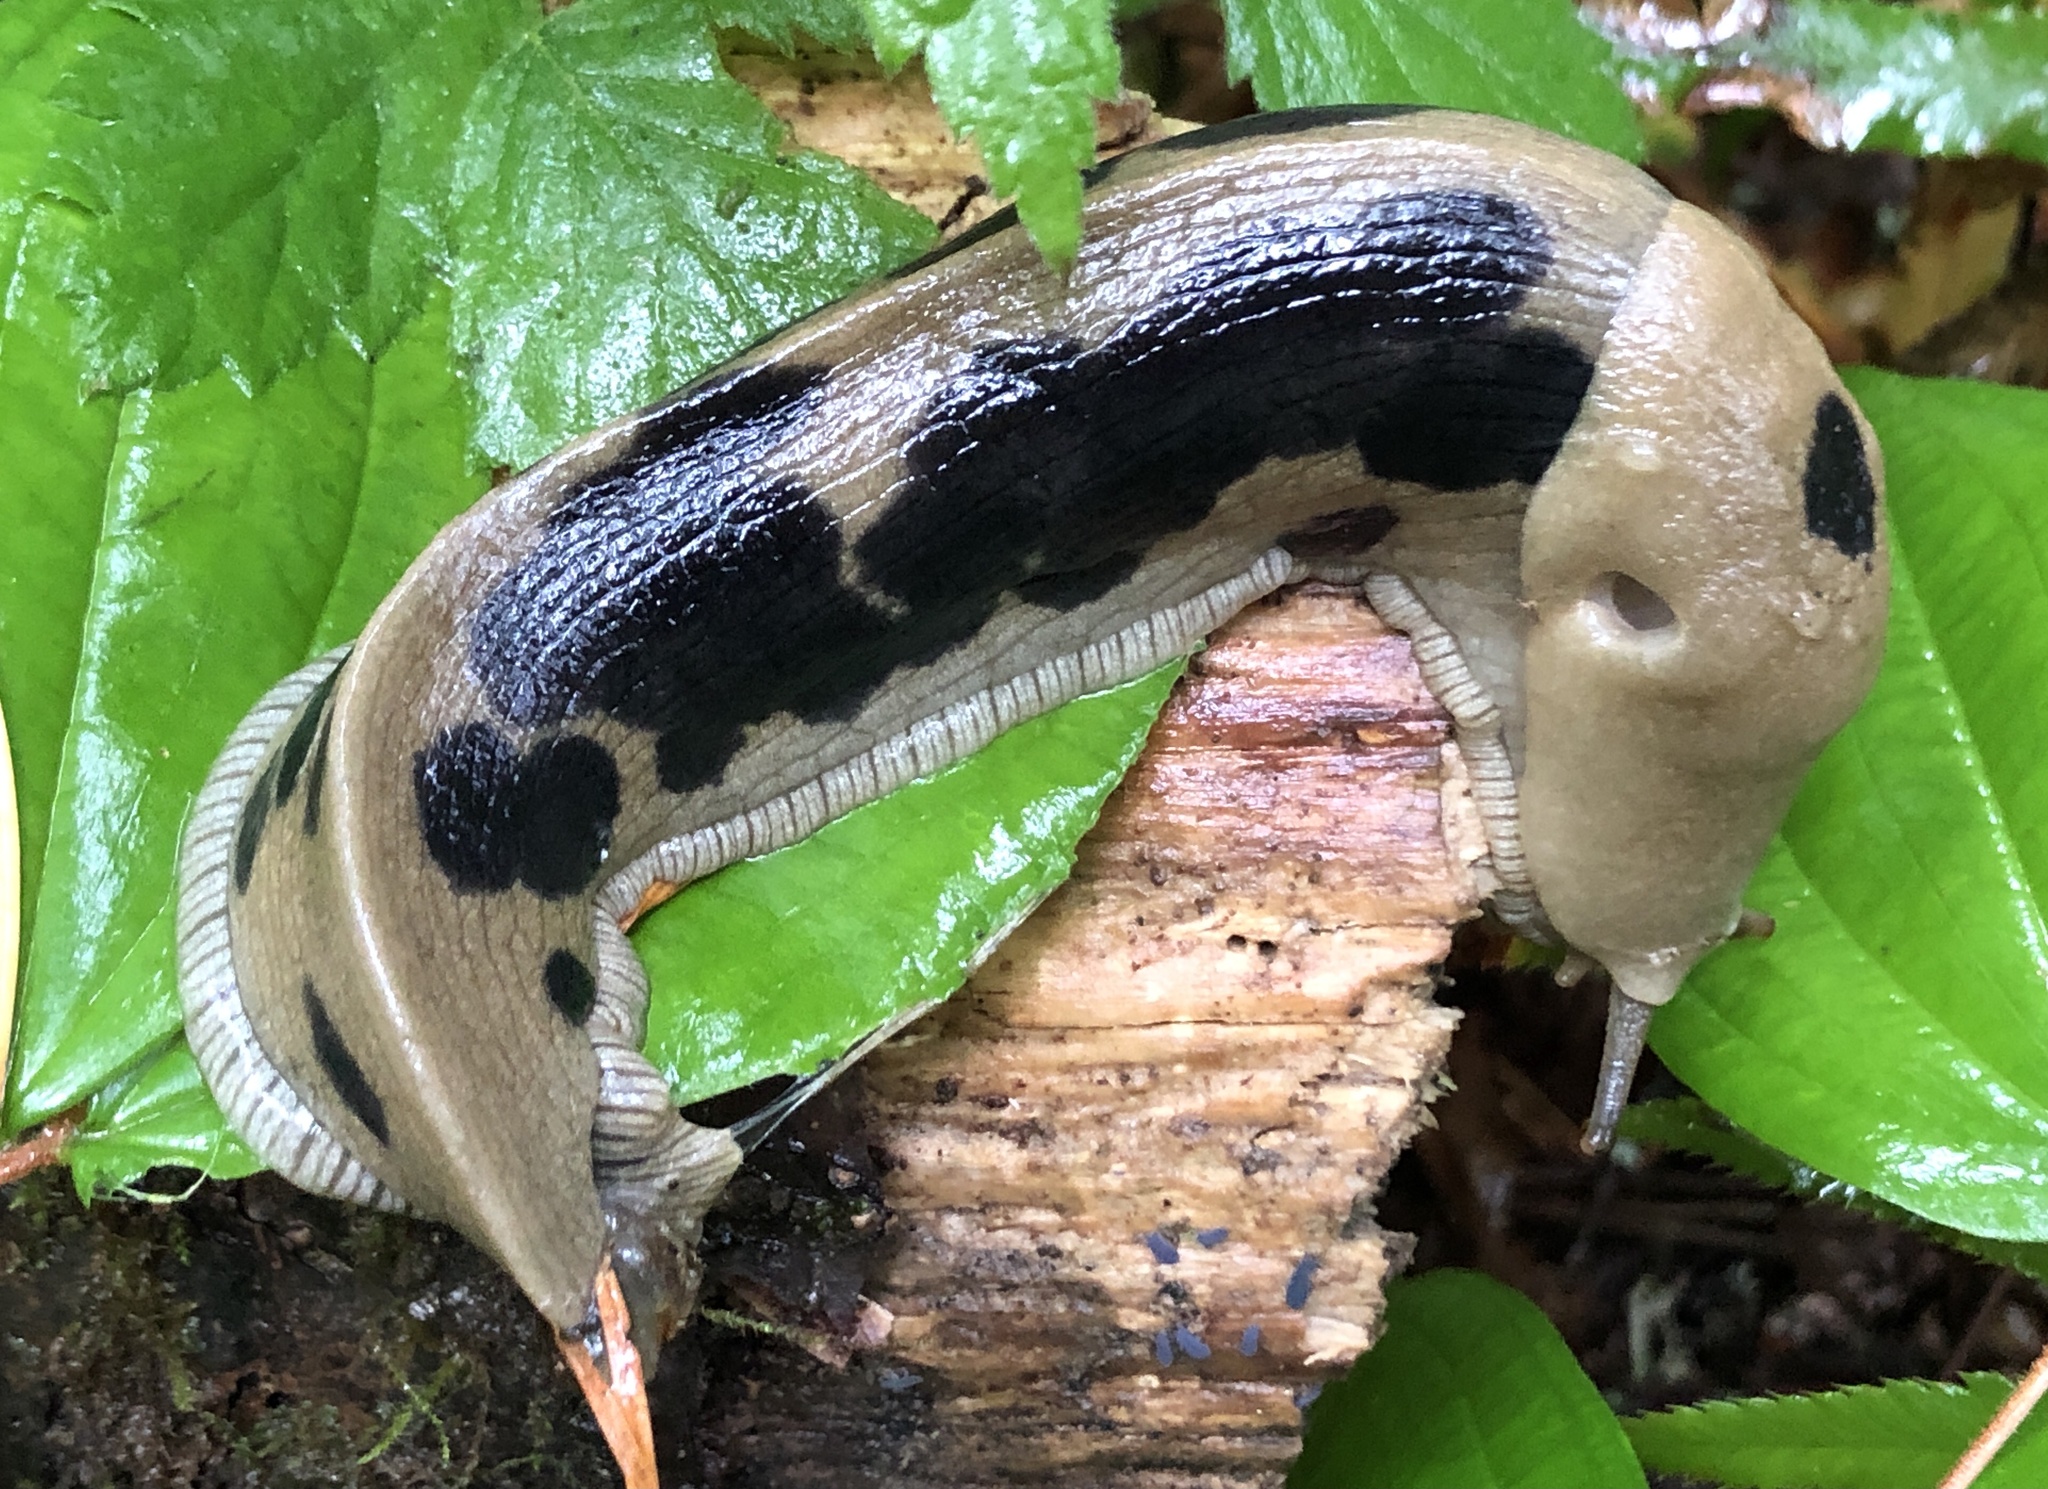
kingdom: Animalia
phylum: Mollusca
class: Gastropoda
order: Stylommatophora
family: Ariolimacidae
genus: Ariolimax
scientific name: Ariolimax columbianus
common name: Pacific banana slug
